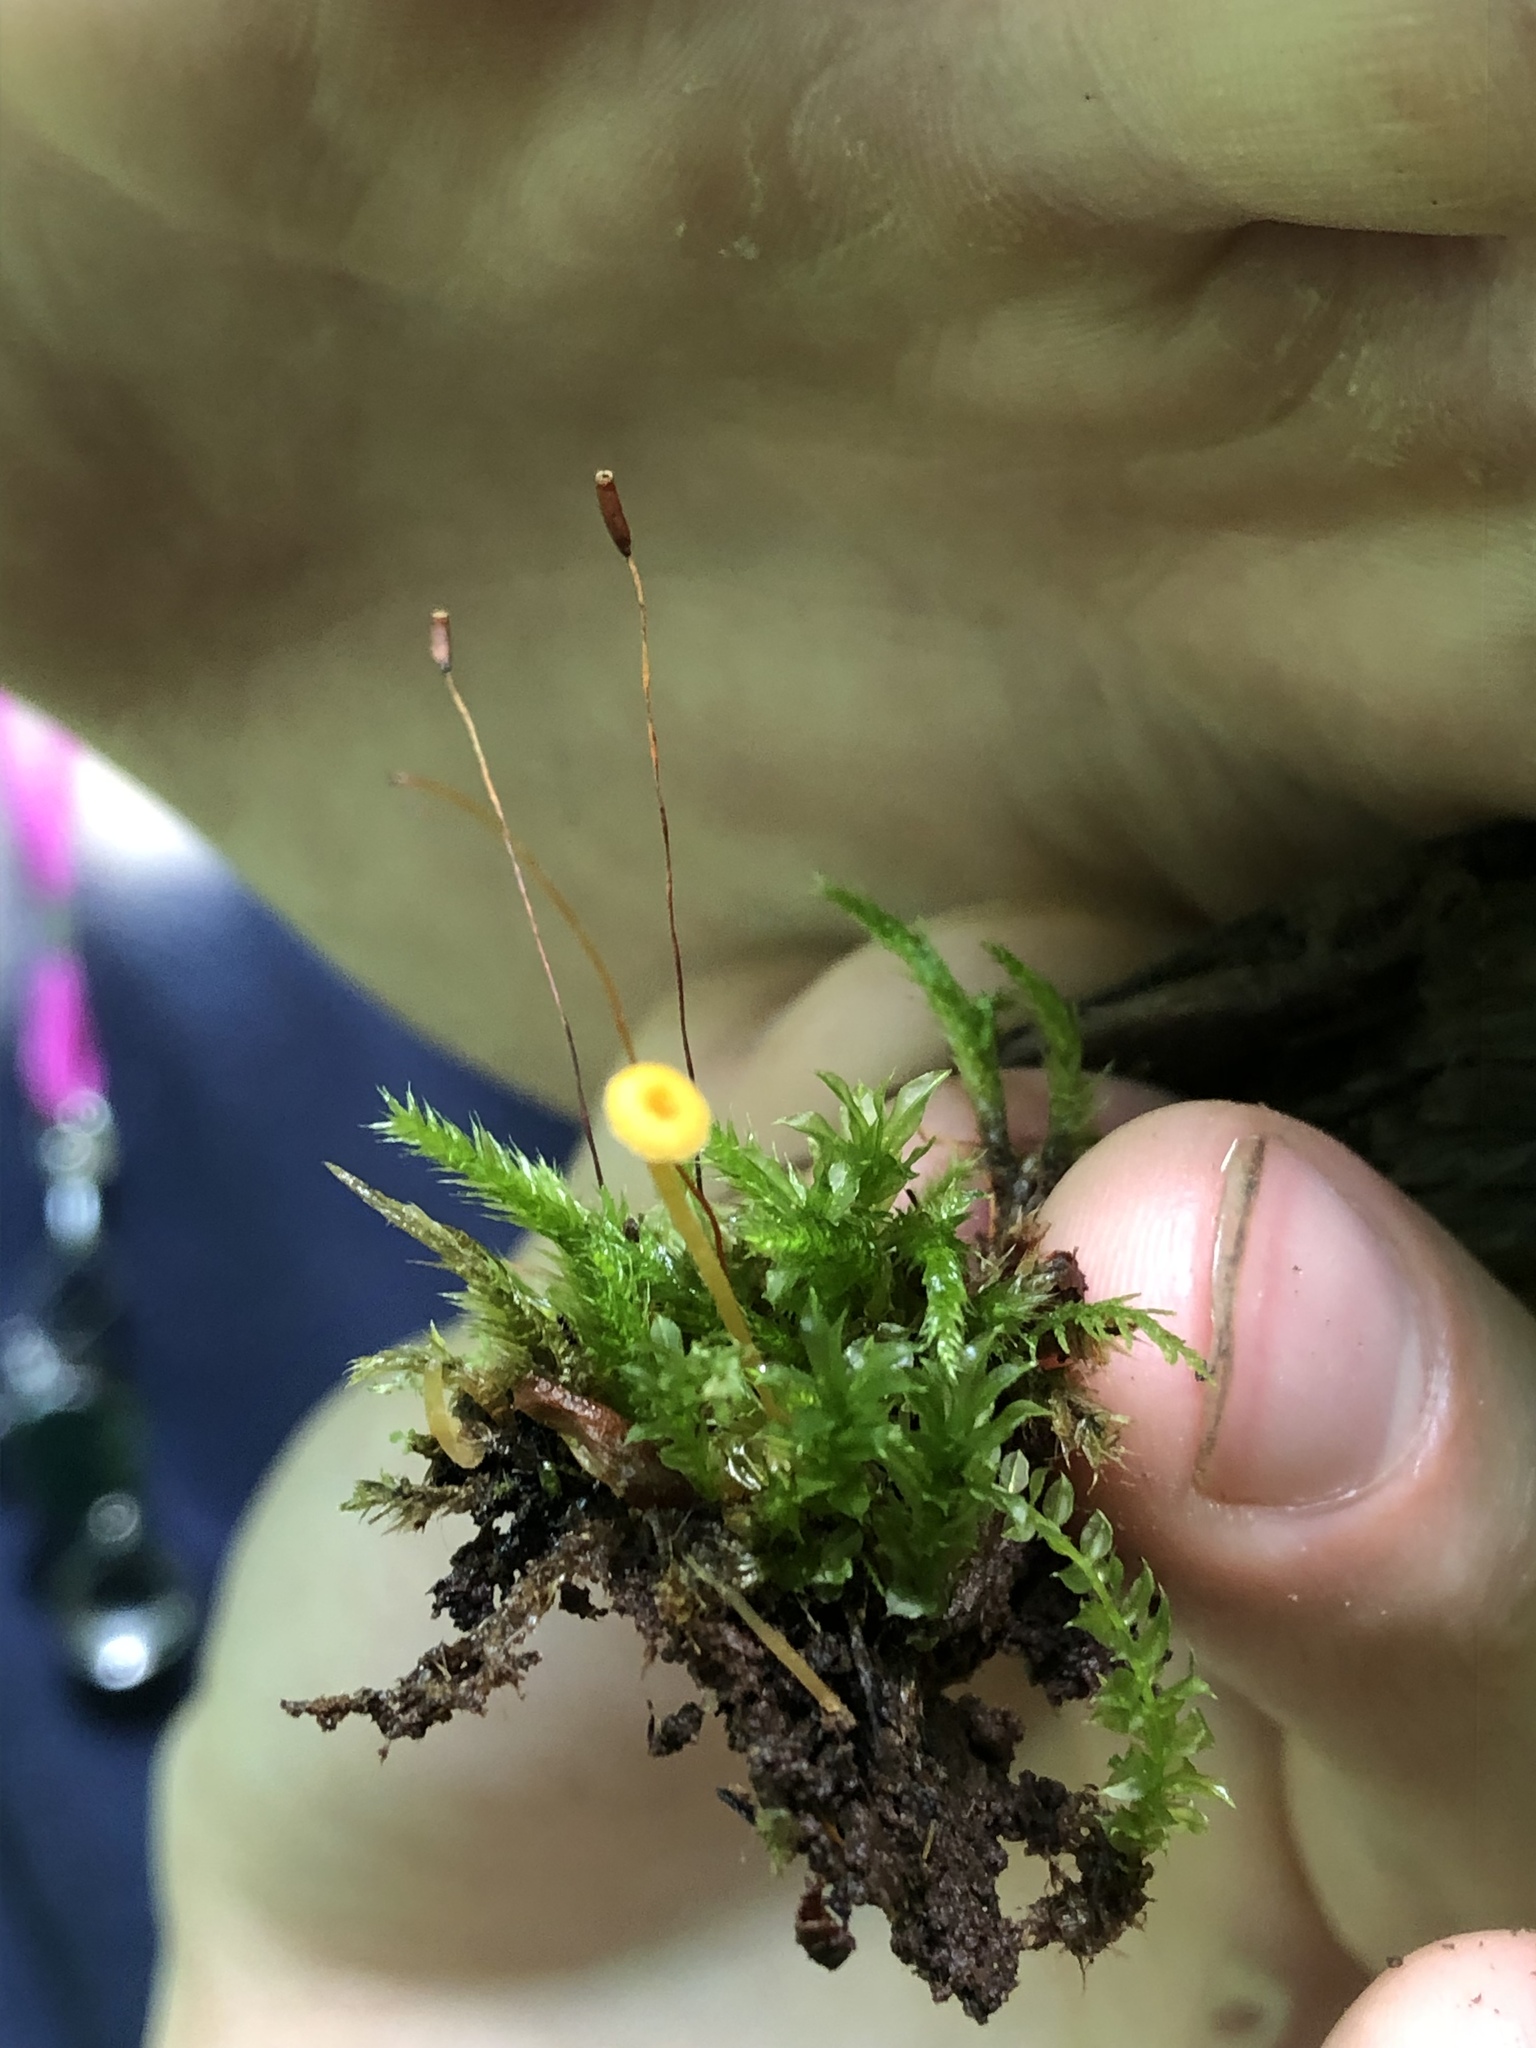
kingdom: Fungi
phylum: Basidiomycota
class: Agaricomycetes
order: Hymenochaetales
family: Rickenellaceae
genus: Rickenella
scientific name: Rickenella fibula
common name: Orange mosscap
